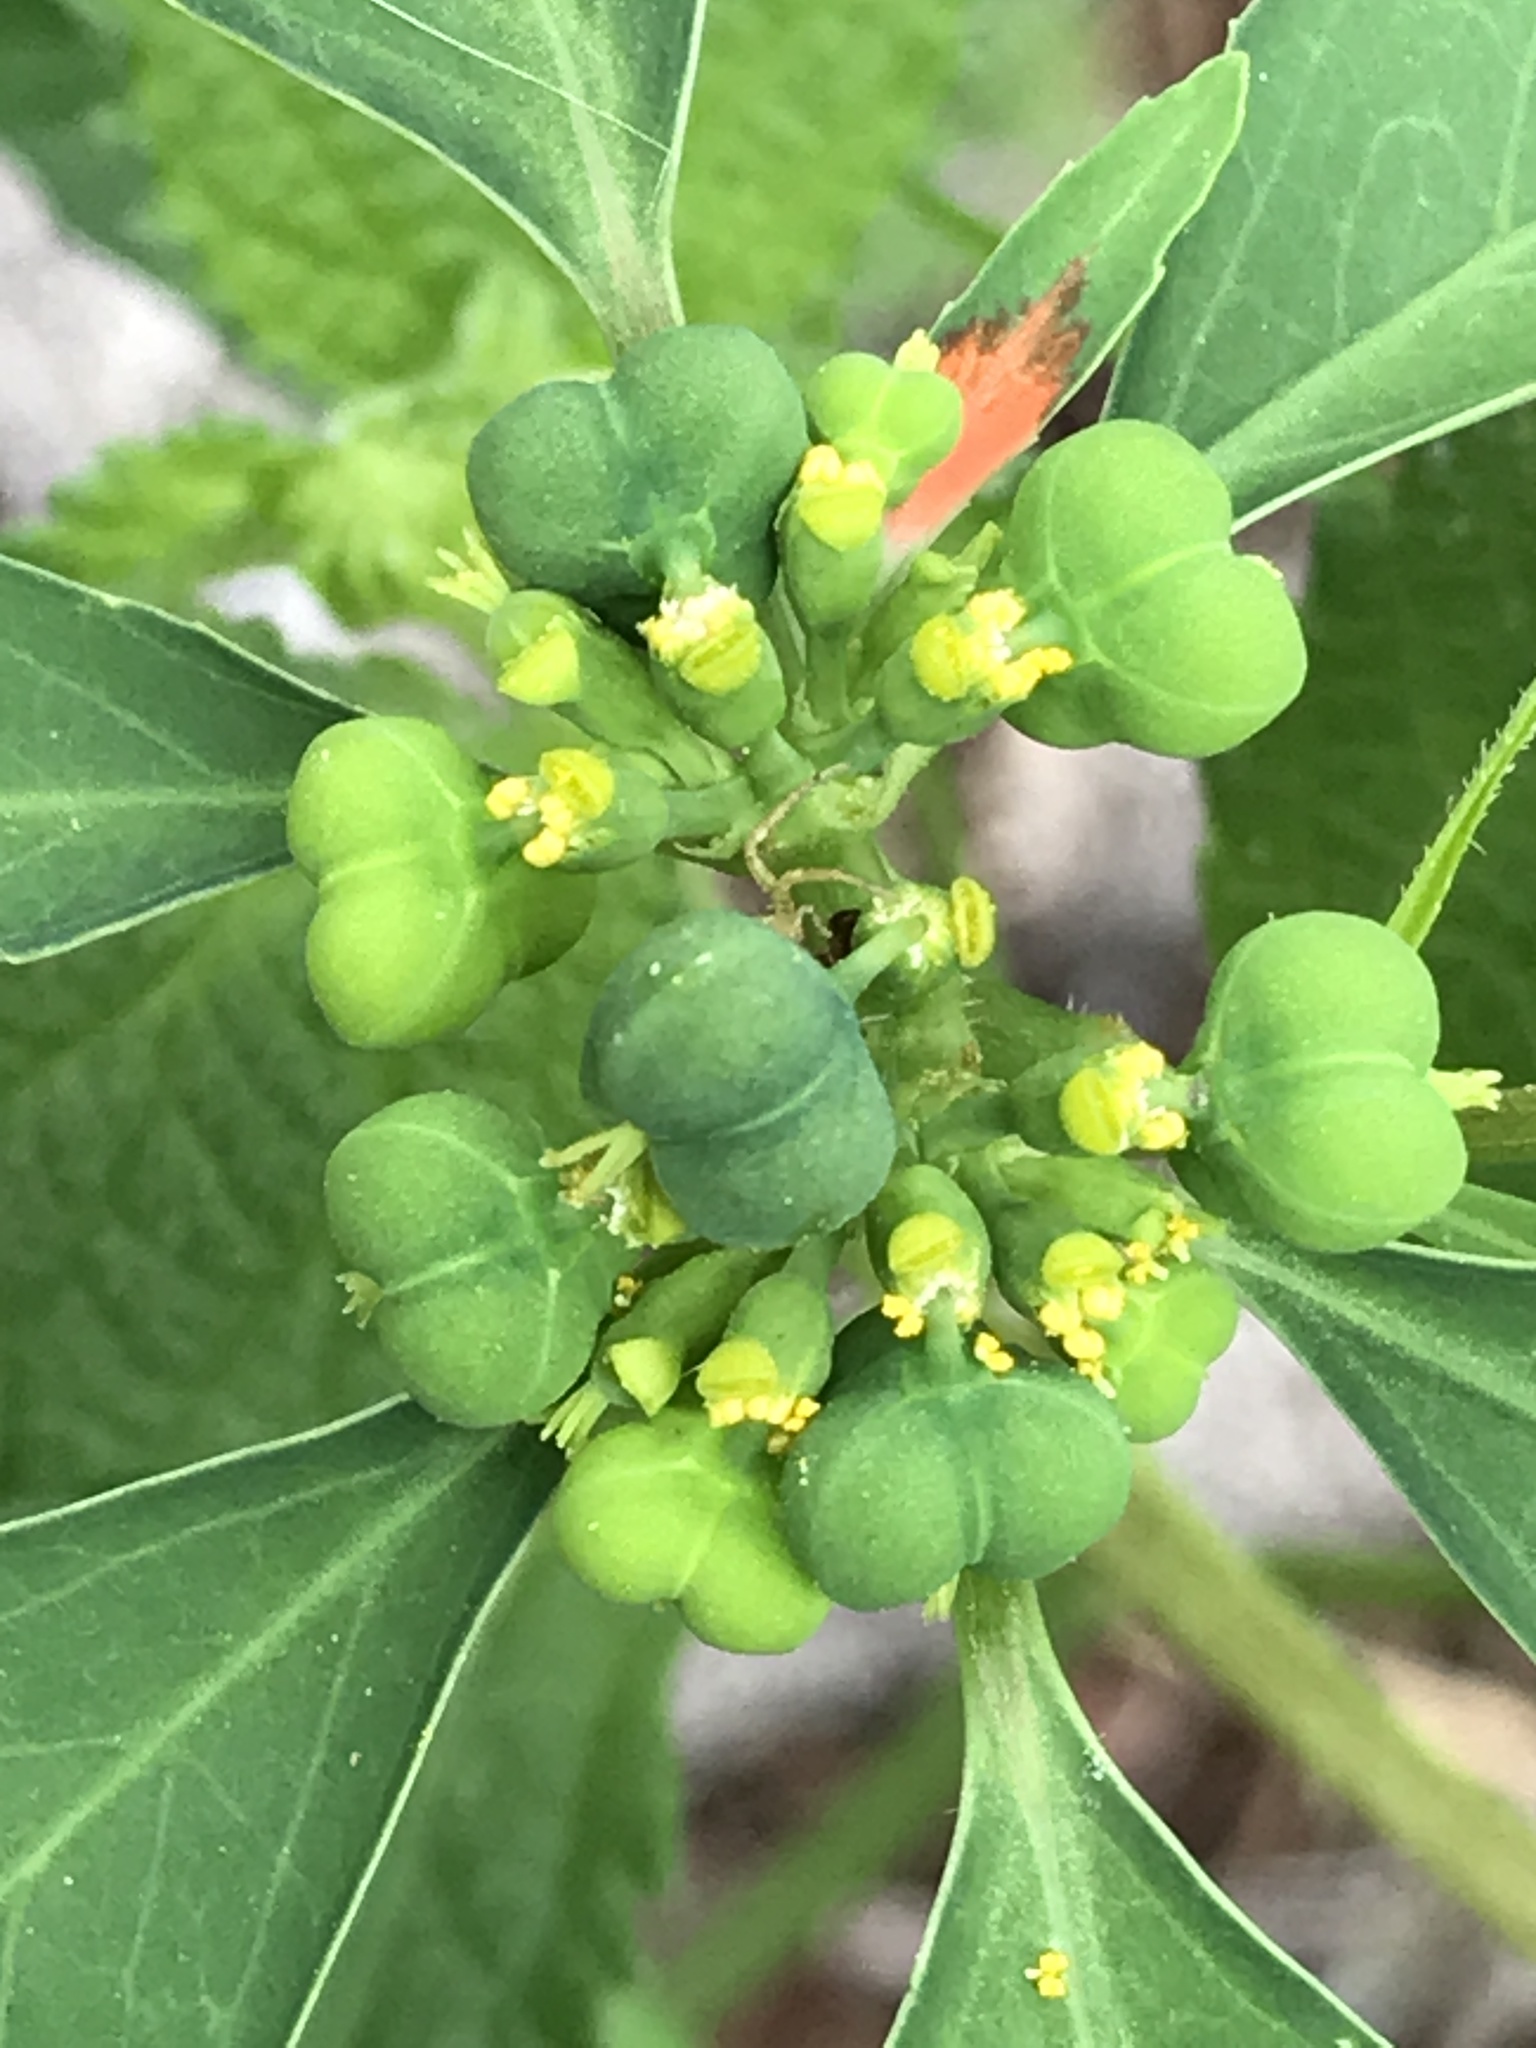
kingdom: Plantae
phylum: Tracheophyta
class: Magnoliopsida
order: Malpighiales
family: Euphorbiaceae
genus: Euphorbia
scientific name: Euphorbia heterophylla
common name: Mexican fireplant
